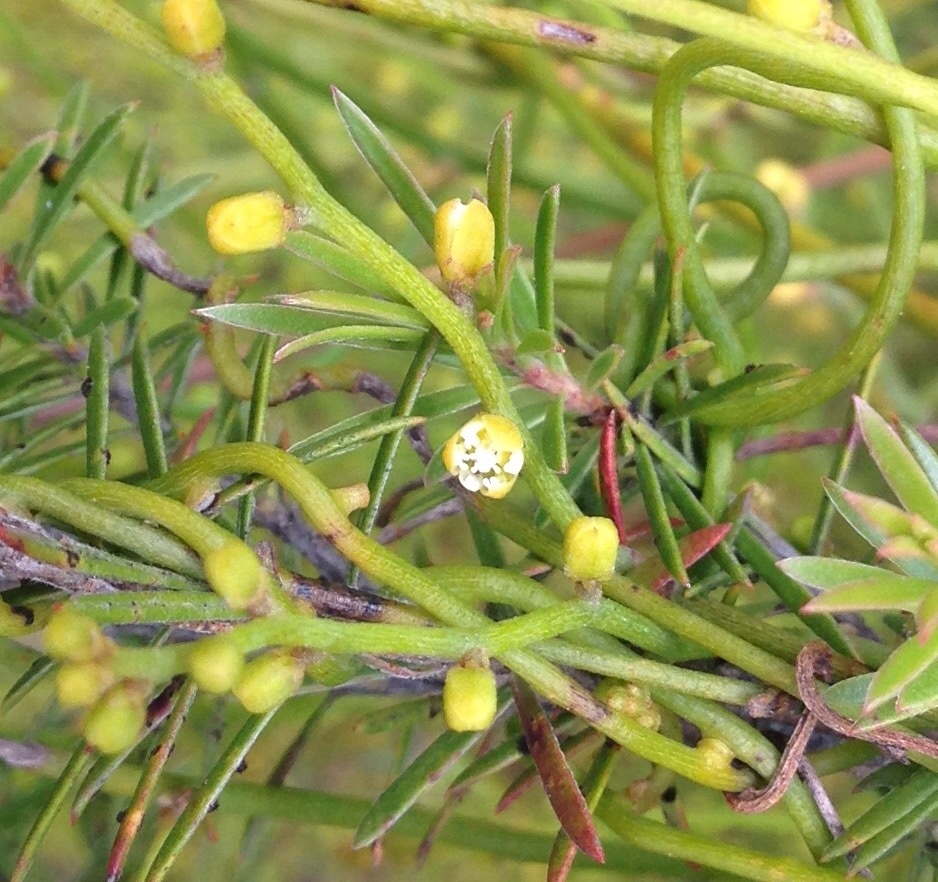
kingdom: Plantae
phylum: Tracheophyta
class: Magnoliopsida
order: Laurales
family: Lauraceae
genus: Cassytha
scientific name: Cassytha paniculata
